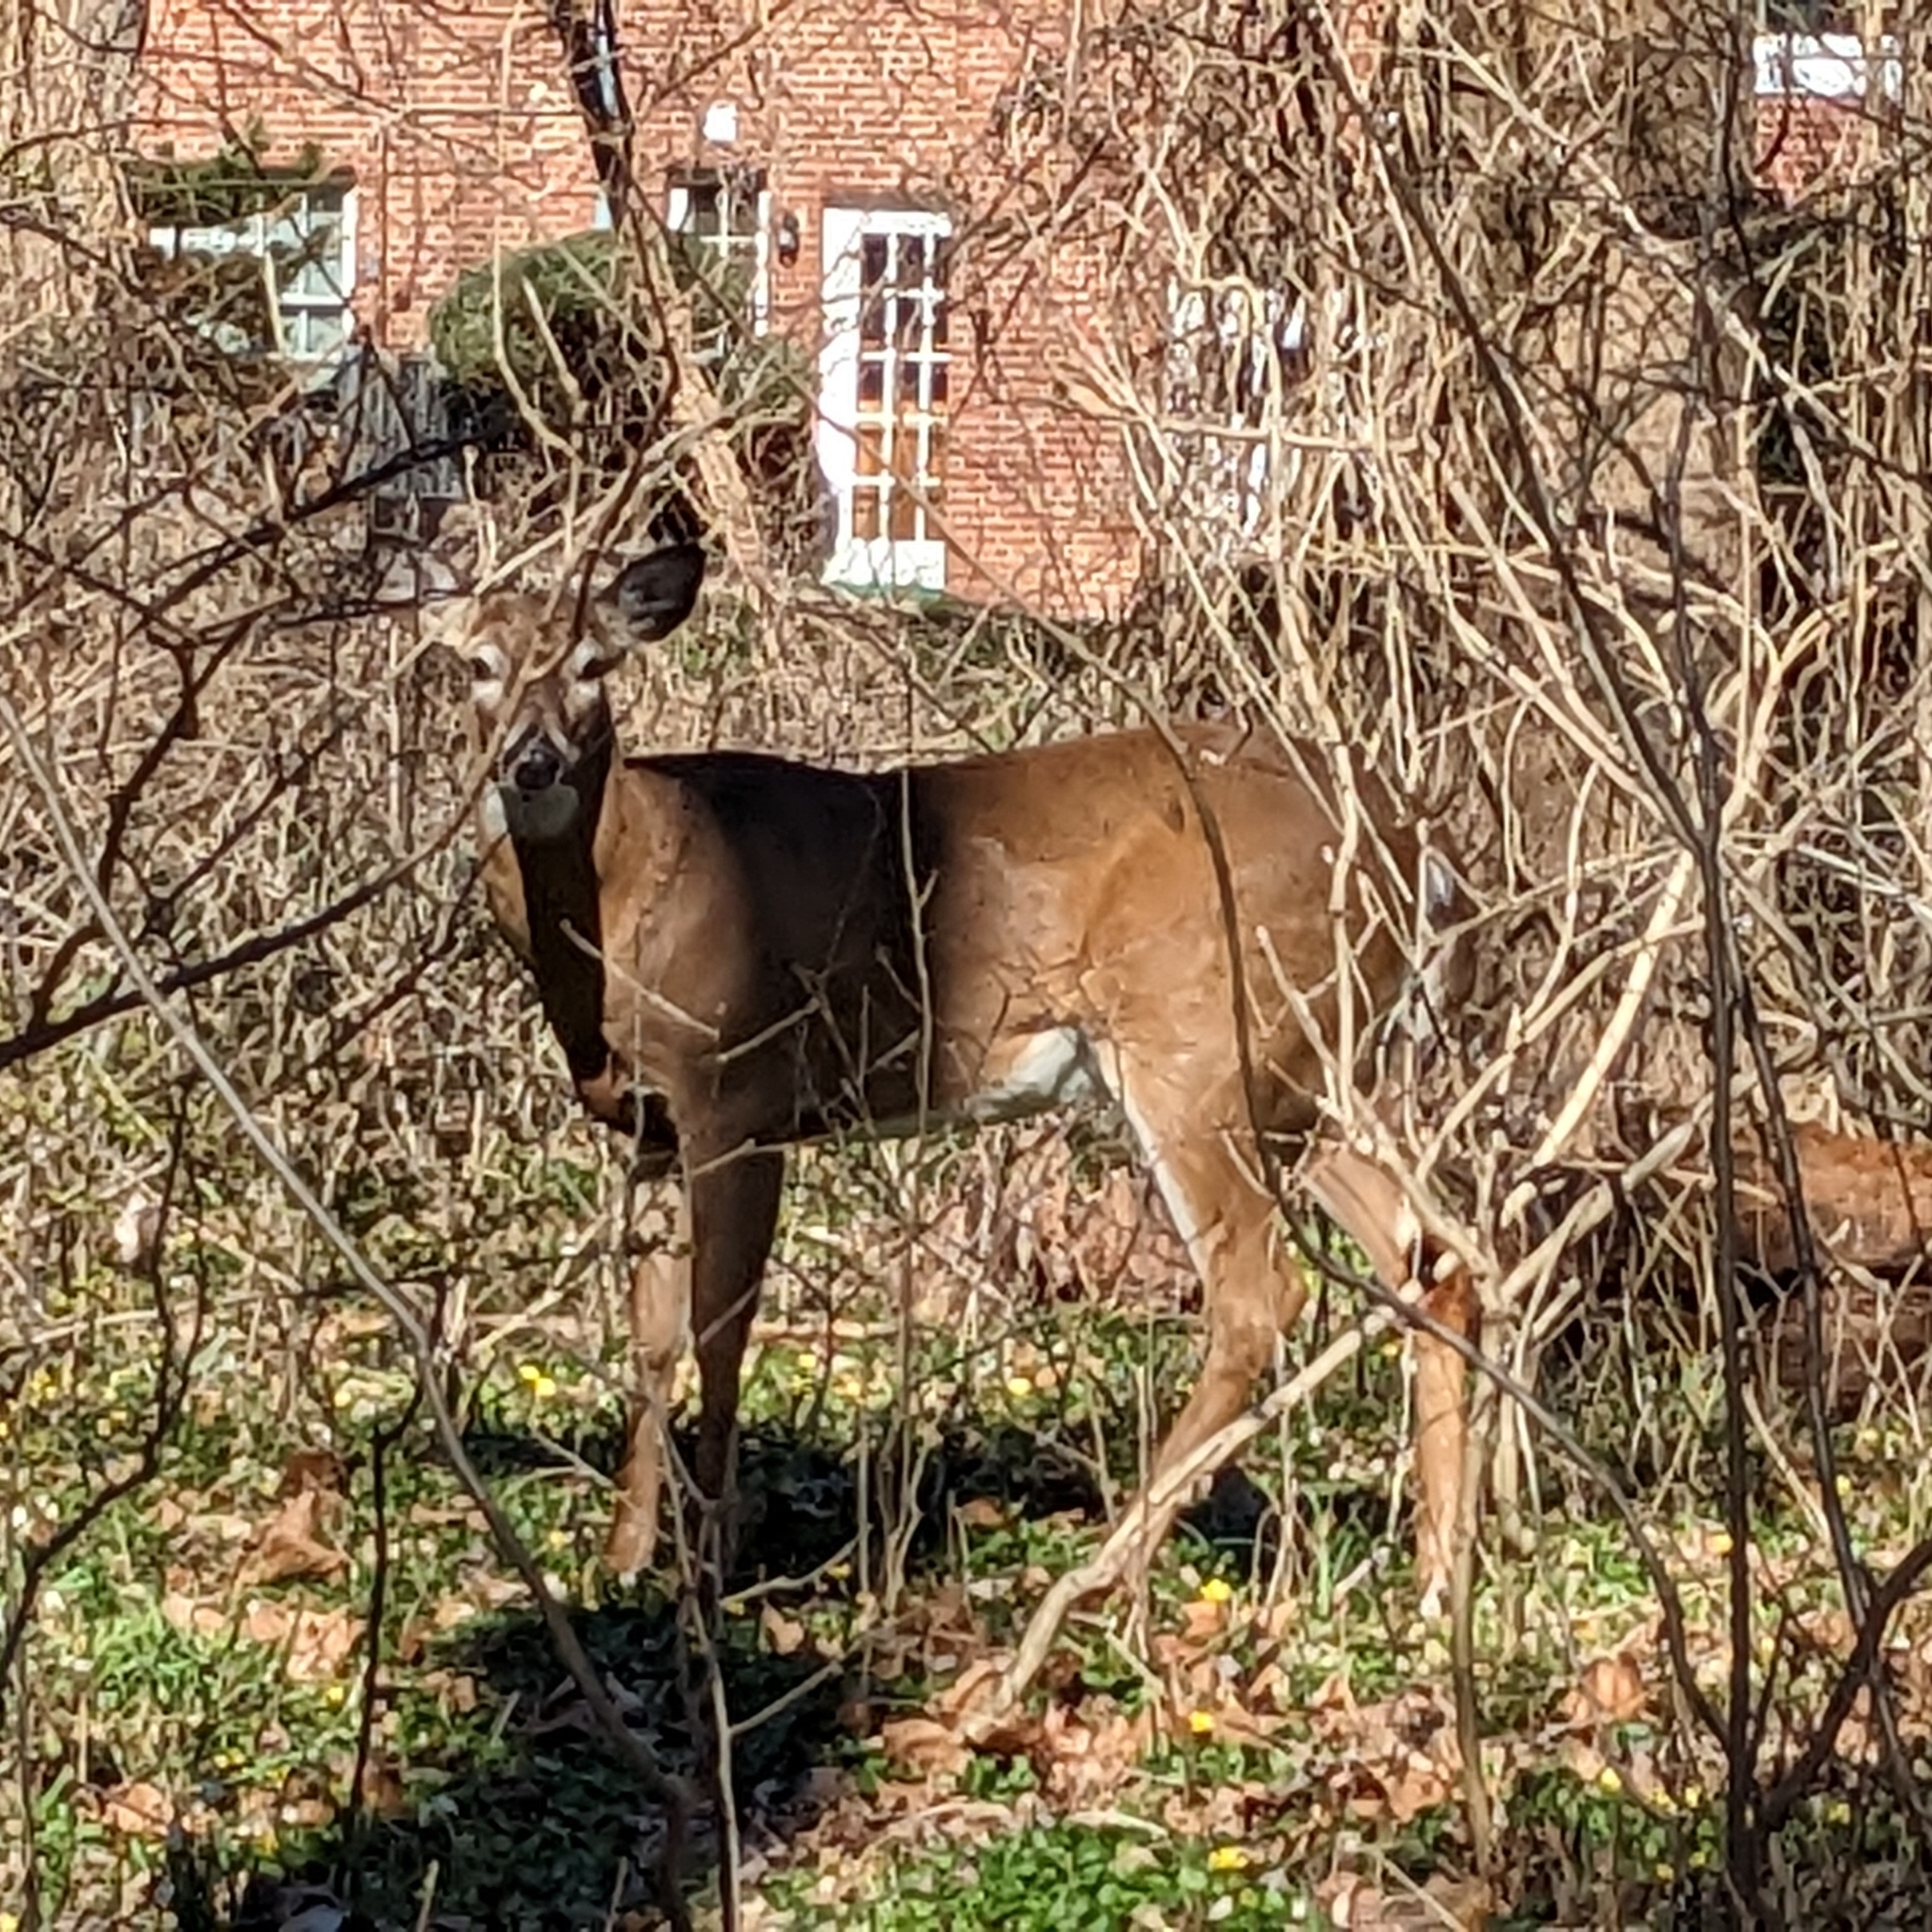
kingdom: Animalia
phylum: Chordata
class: Mammalia
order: Artiodactyla
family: Cervidae
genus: Odocoileus
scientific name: Odocoileus virginianus
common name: White-tailed deer
